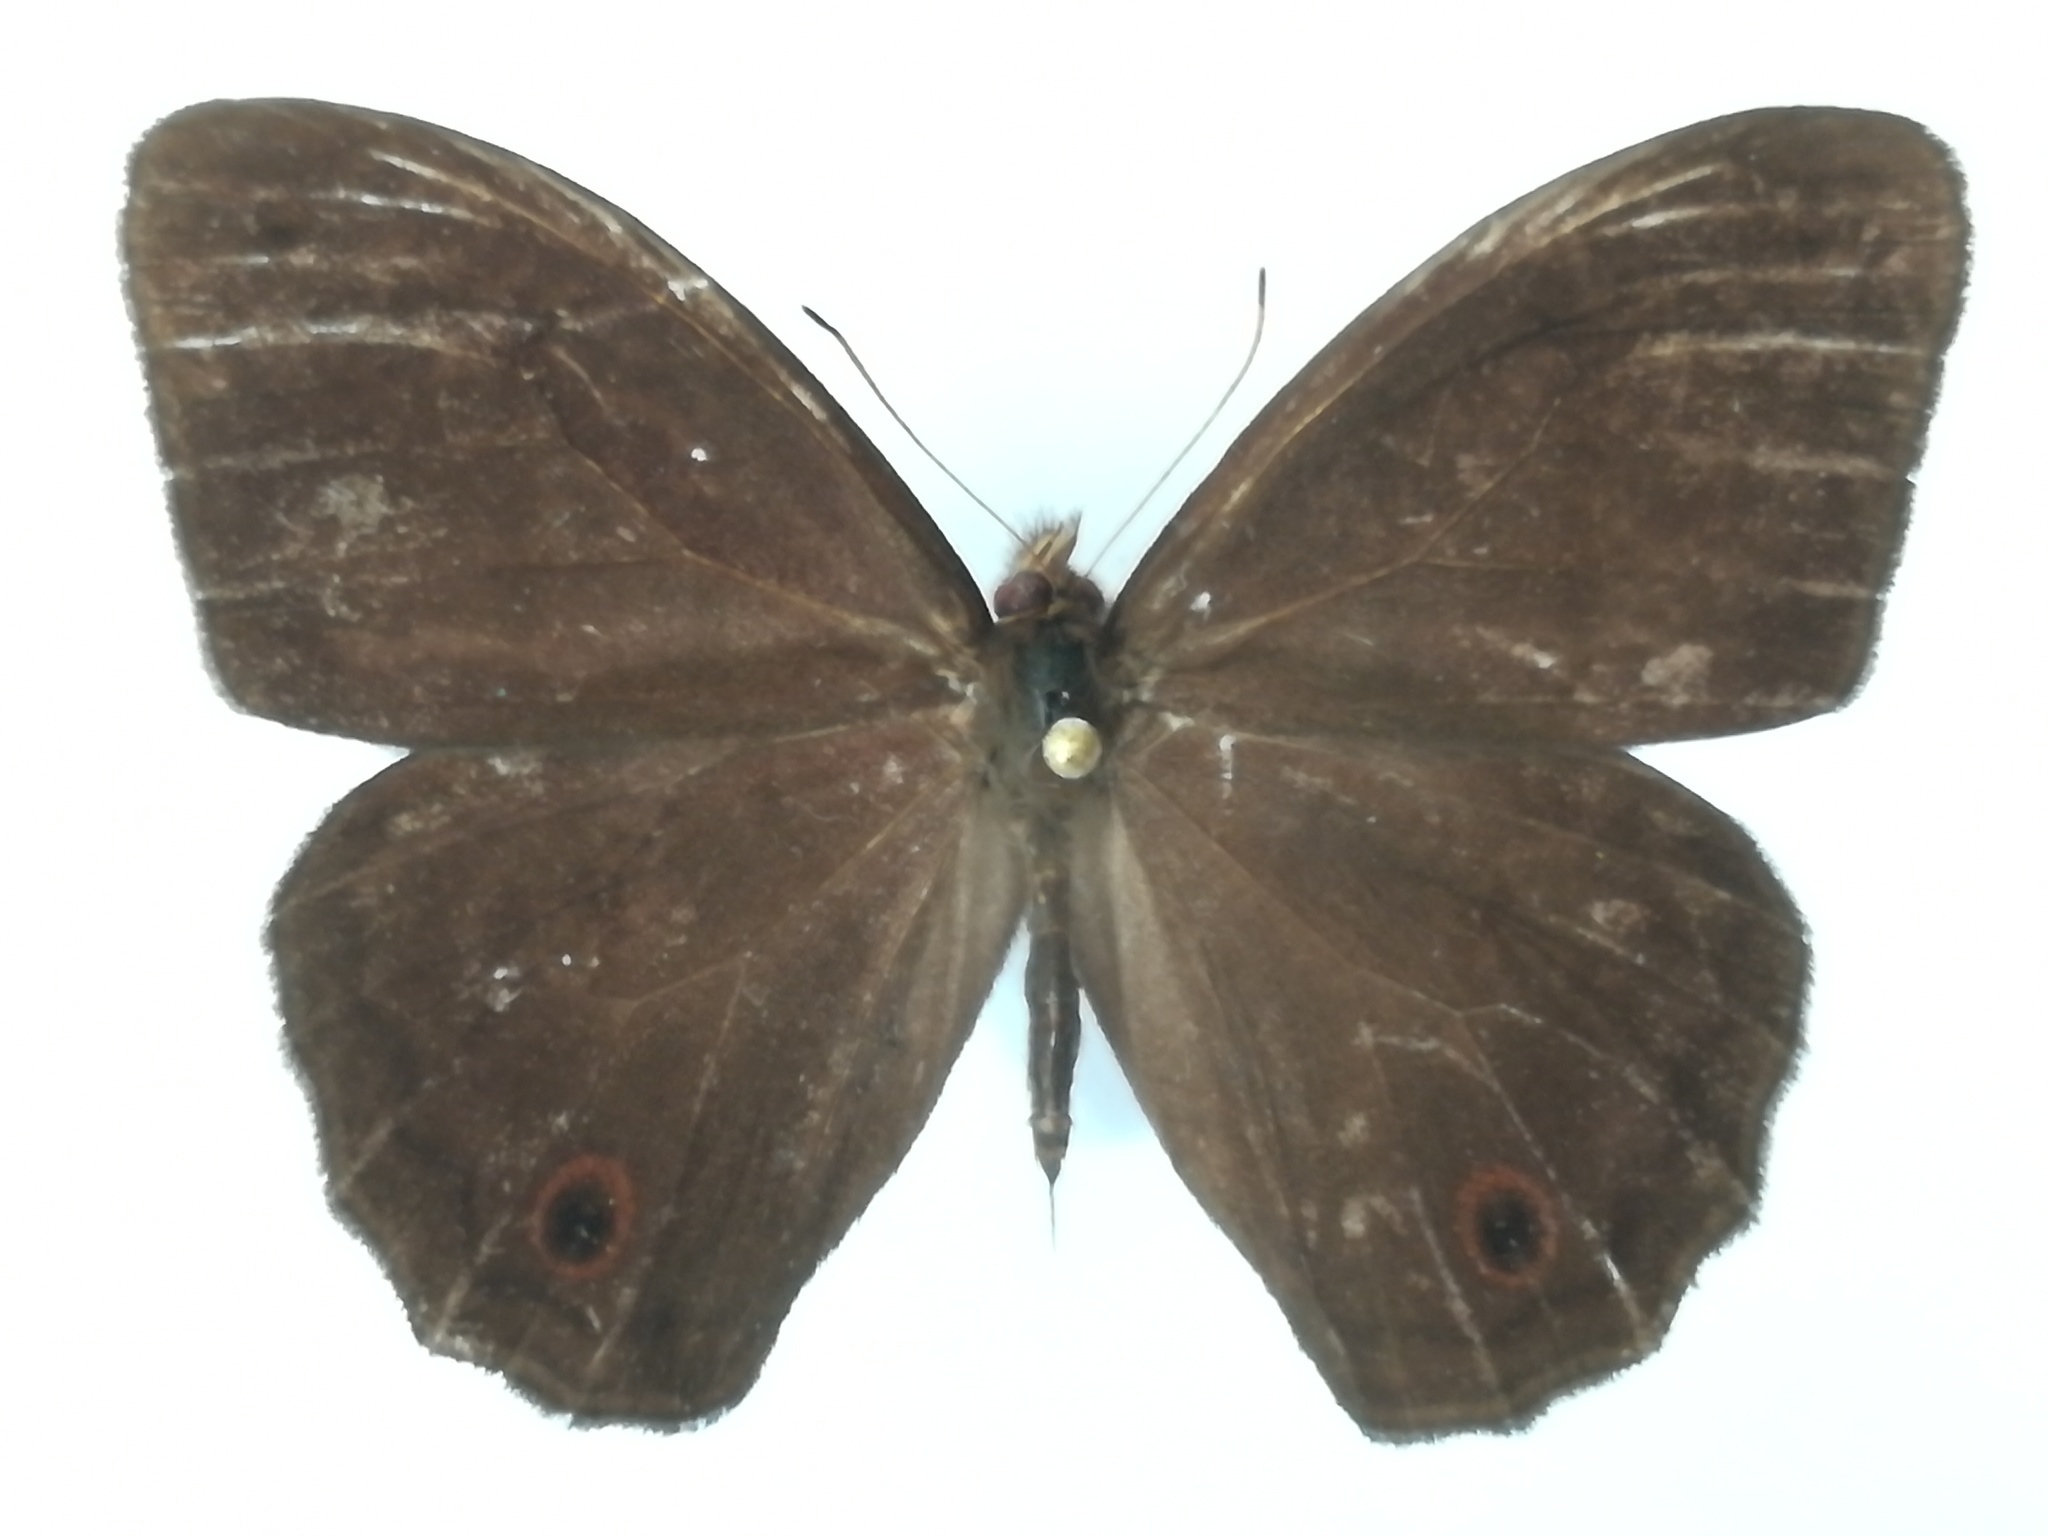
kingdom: Animalia
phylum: Arthropoda
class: Insecta
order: Lepidoptera
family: Nymphalidae
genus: Satyrotaygetis
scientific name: Satyrotaygetis satyrina
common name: Wide-bordered satyr
